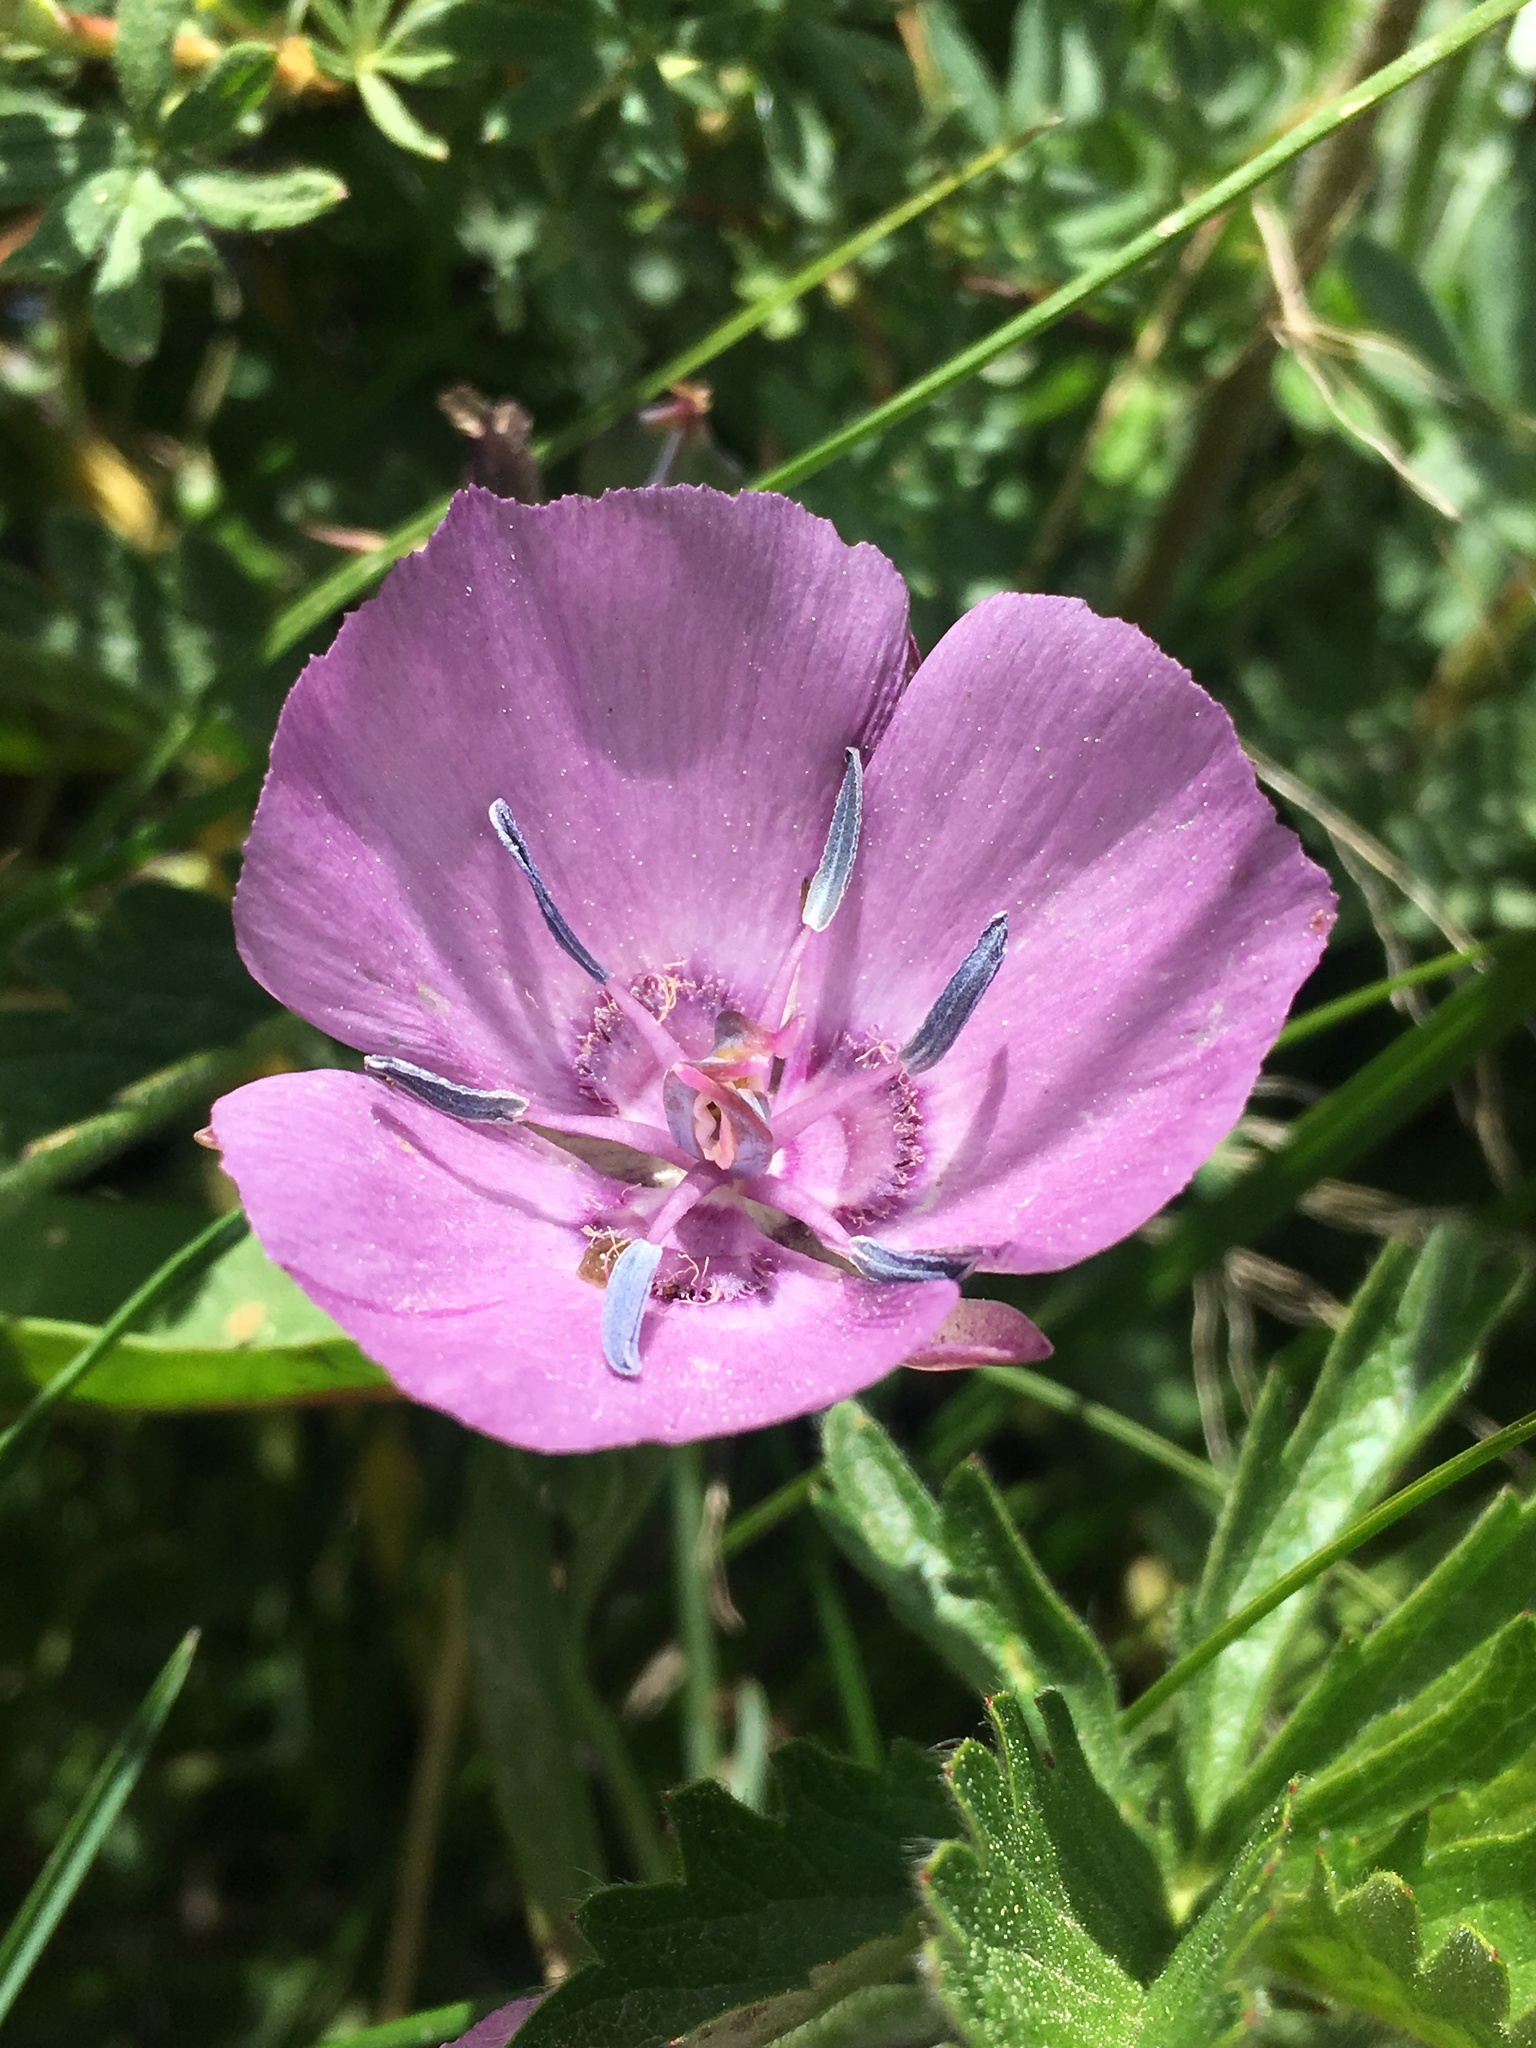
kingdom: Plantae
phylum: Tracheophyta
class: Liliopsida
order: Liliales
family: Liliaceae
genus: Calochortus
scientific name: Calochortus nudus
